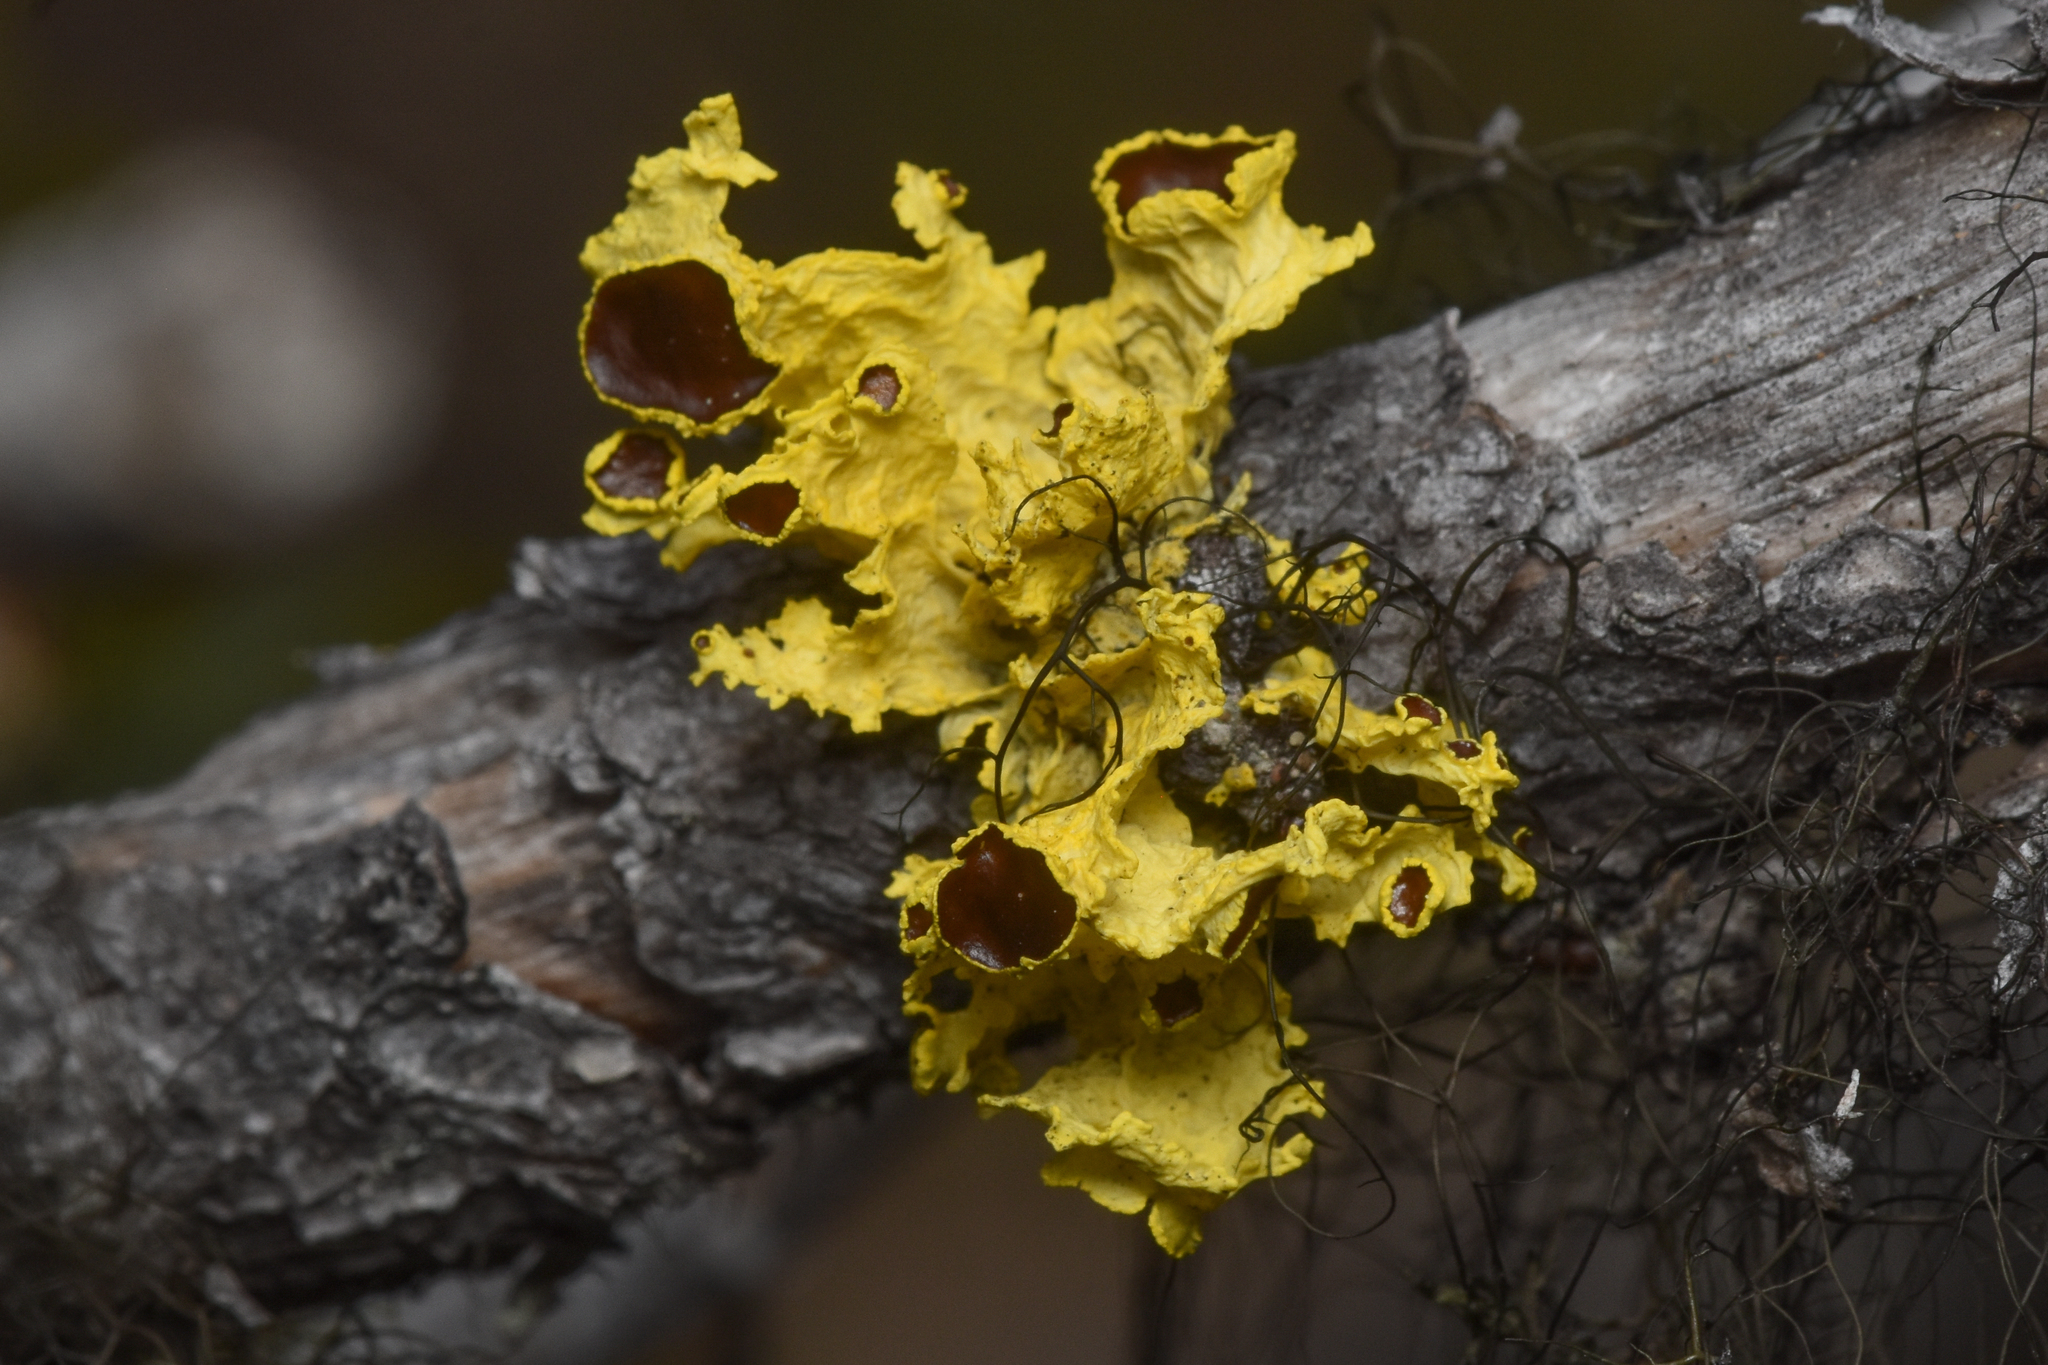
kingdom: Fungi
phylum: Ascomycota
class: Lecanoromycetes
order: Lecanorales
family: Parmeliaceae
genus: Vulpicida
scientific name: Vulpicida canadensis
